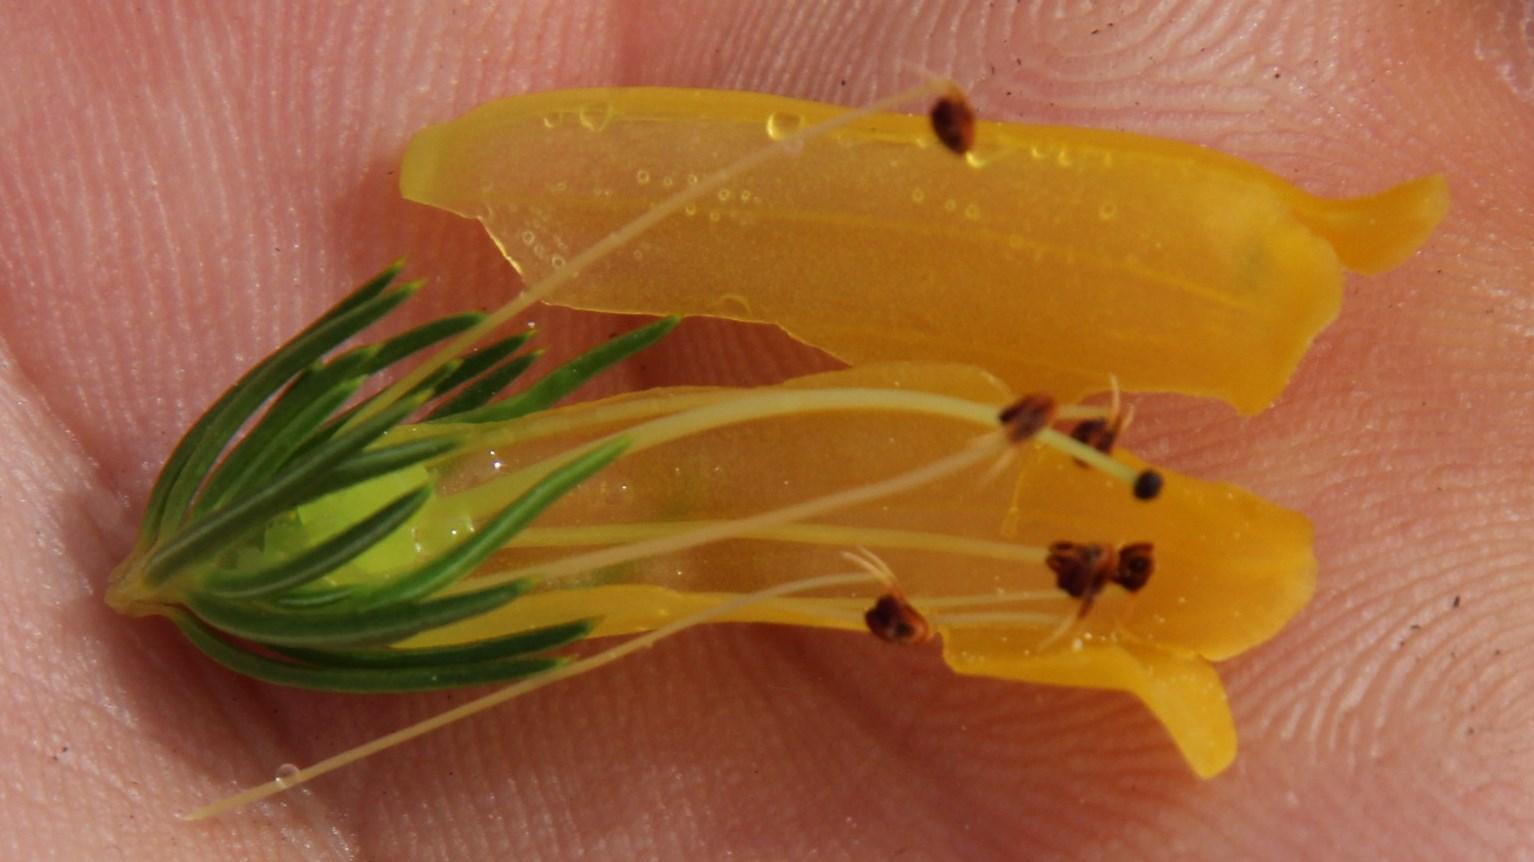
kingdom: Plantae
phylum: Tracheophyta
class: Magnoliopsida
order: Ericales
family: Ericaceae
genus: Erica
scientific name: Erica patersonia
